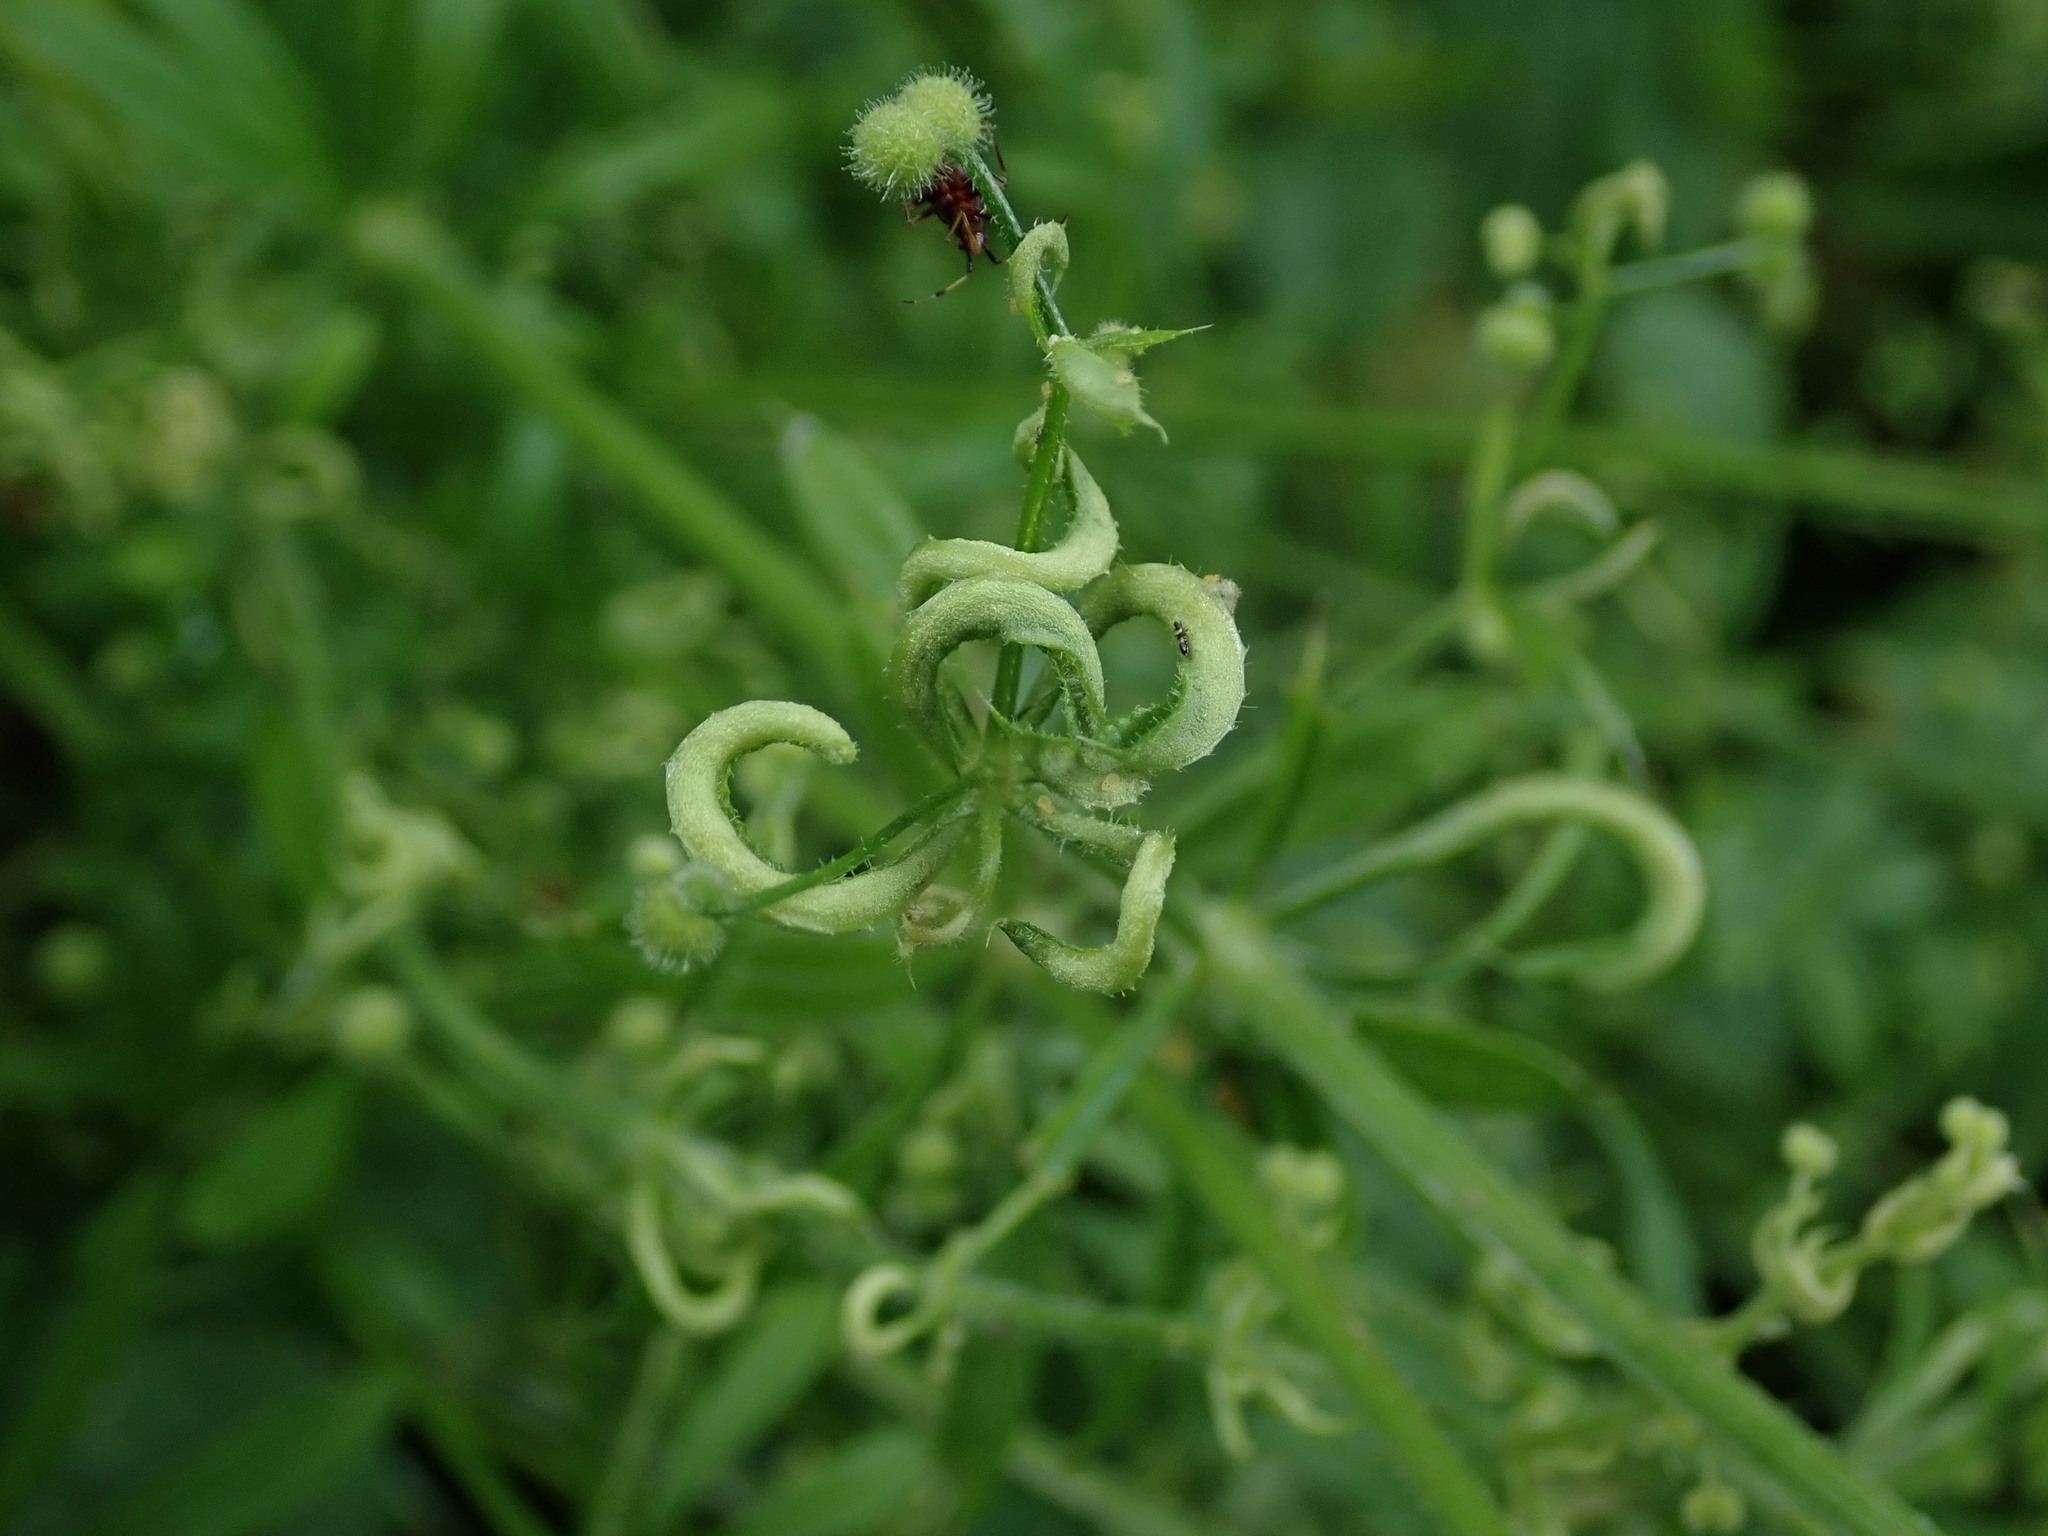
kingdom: Animalia
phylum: Arthropoda
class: Arachnida
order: Trombidiformes
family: Eriophyidae
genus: Cecidophyes
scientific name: Cecidophyes rouhollahi
